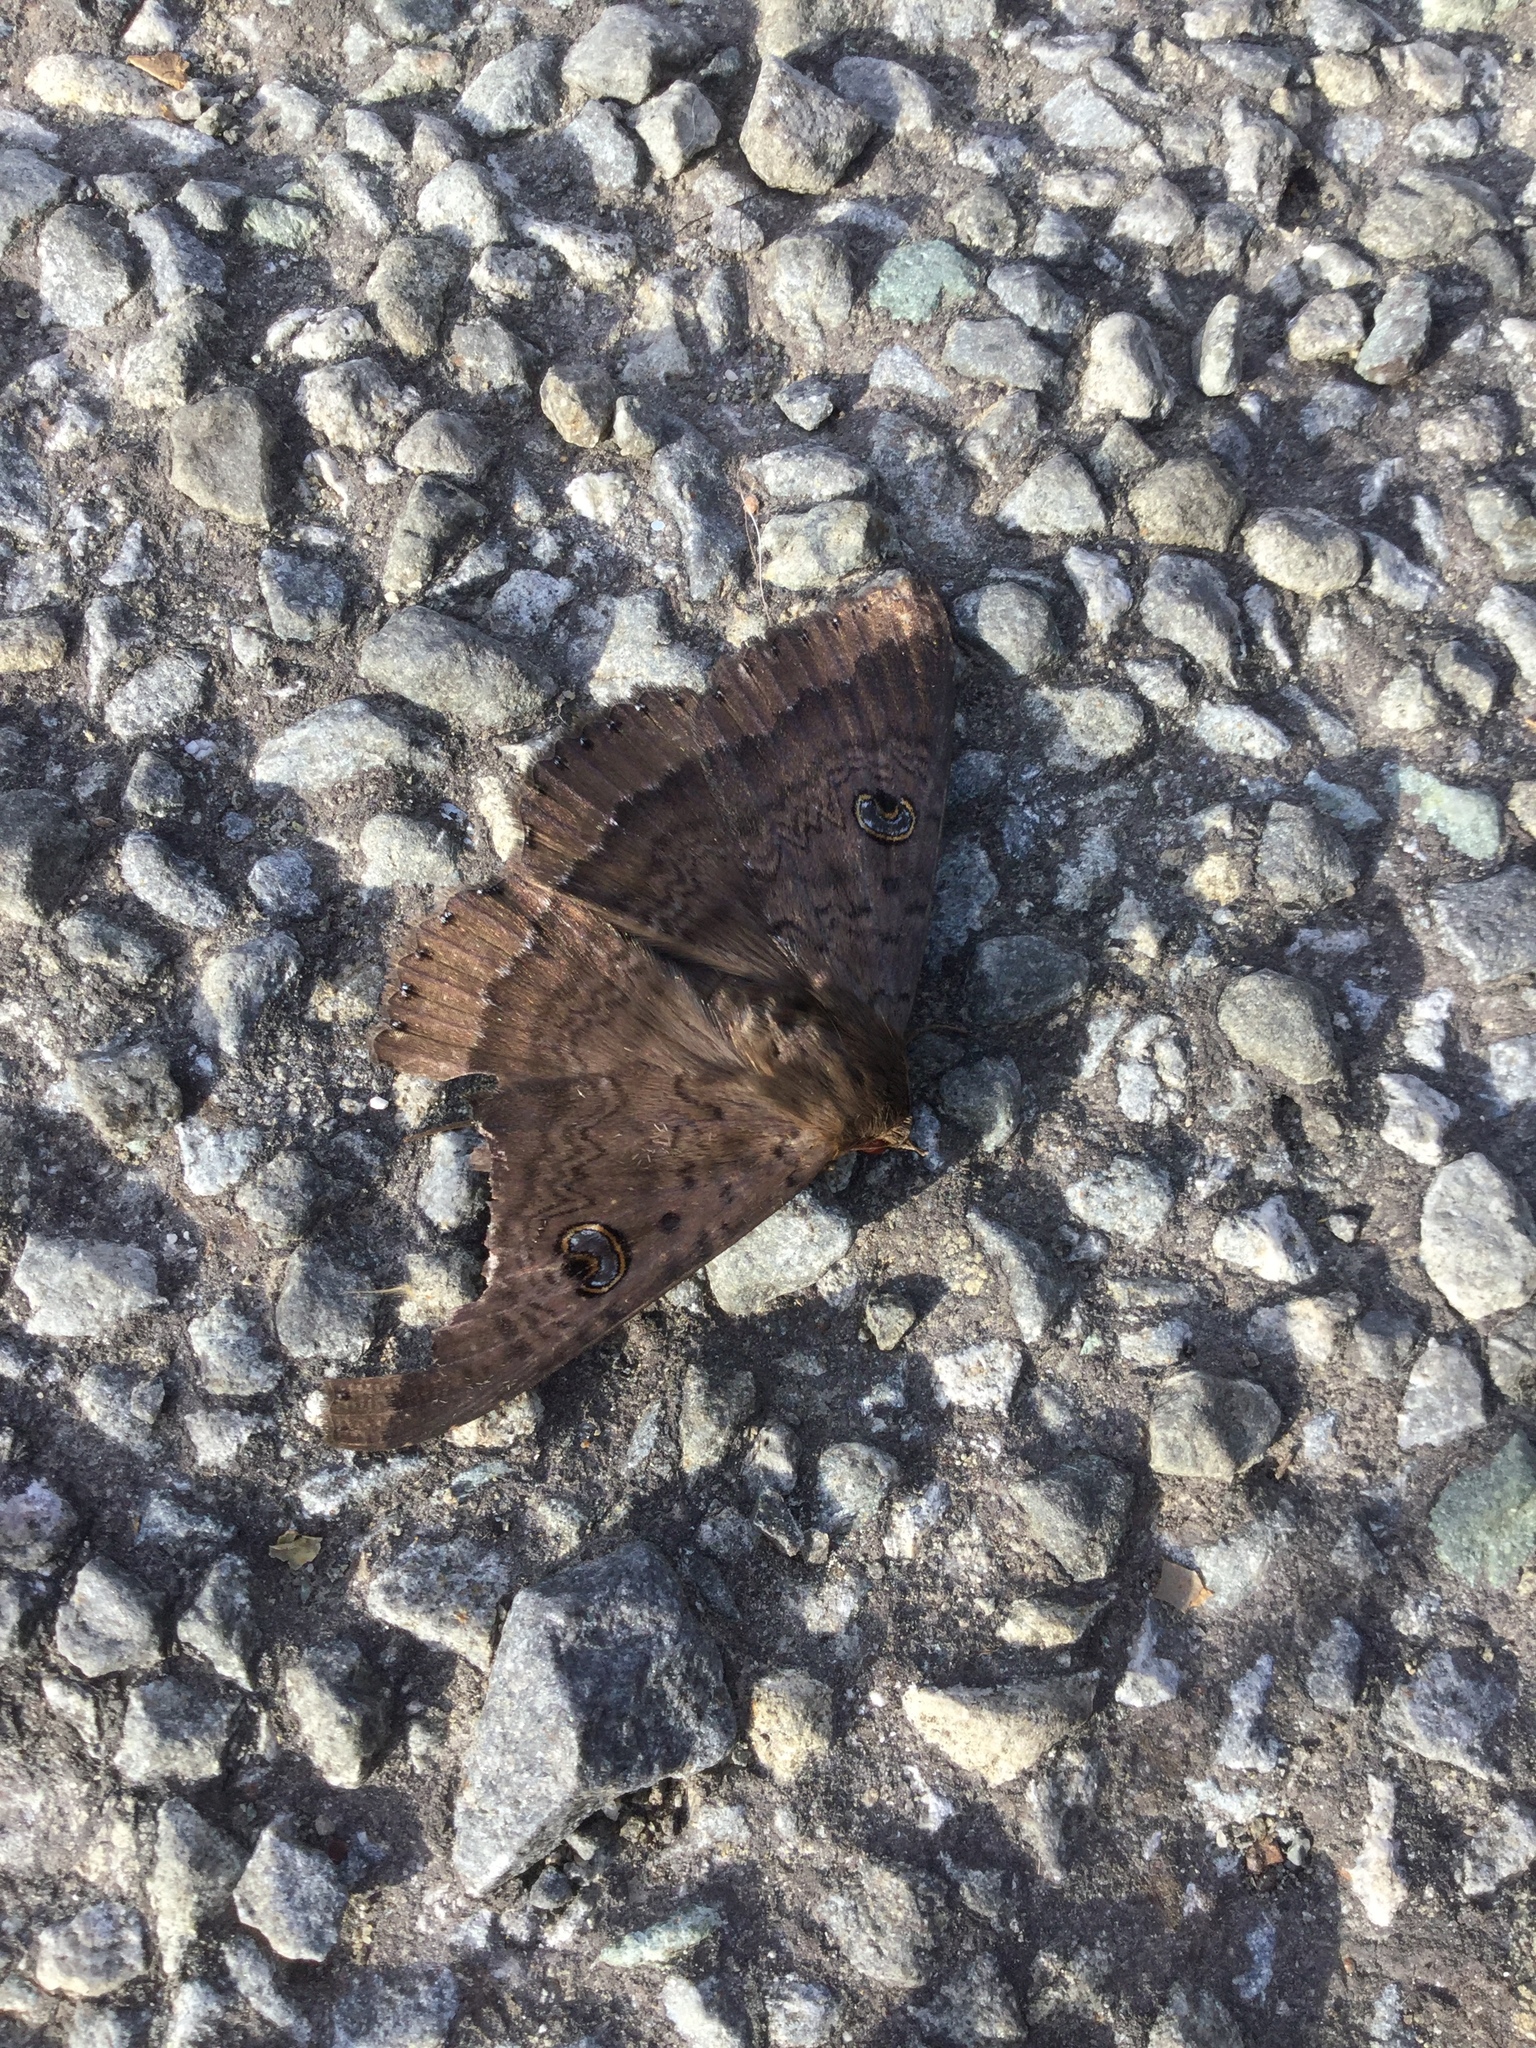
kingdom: Animalia
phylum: Arthropoda
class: Insecta
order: Lepidoptera
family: Erebidae
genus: Dasypodia
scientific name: Dasypodia cymatodes
